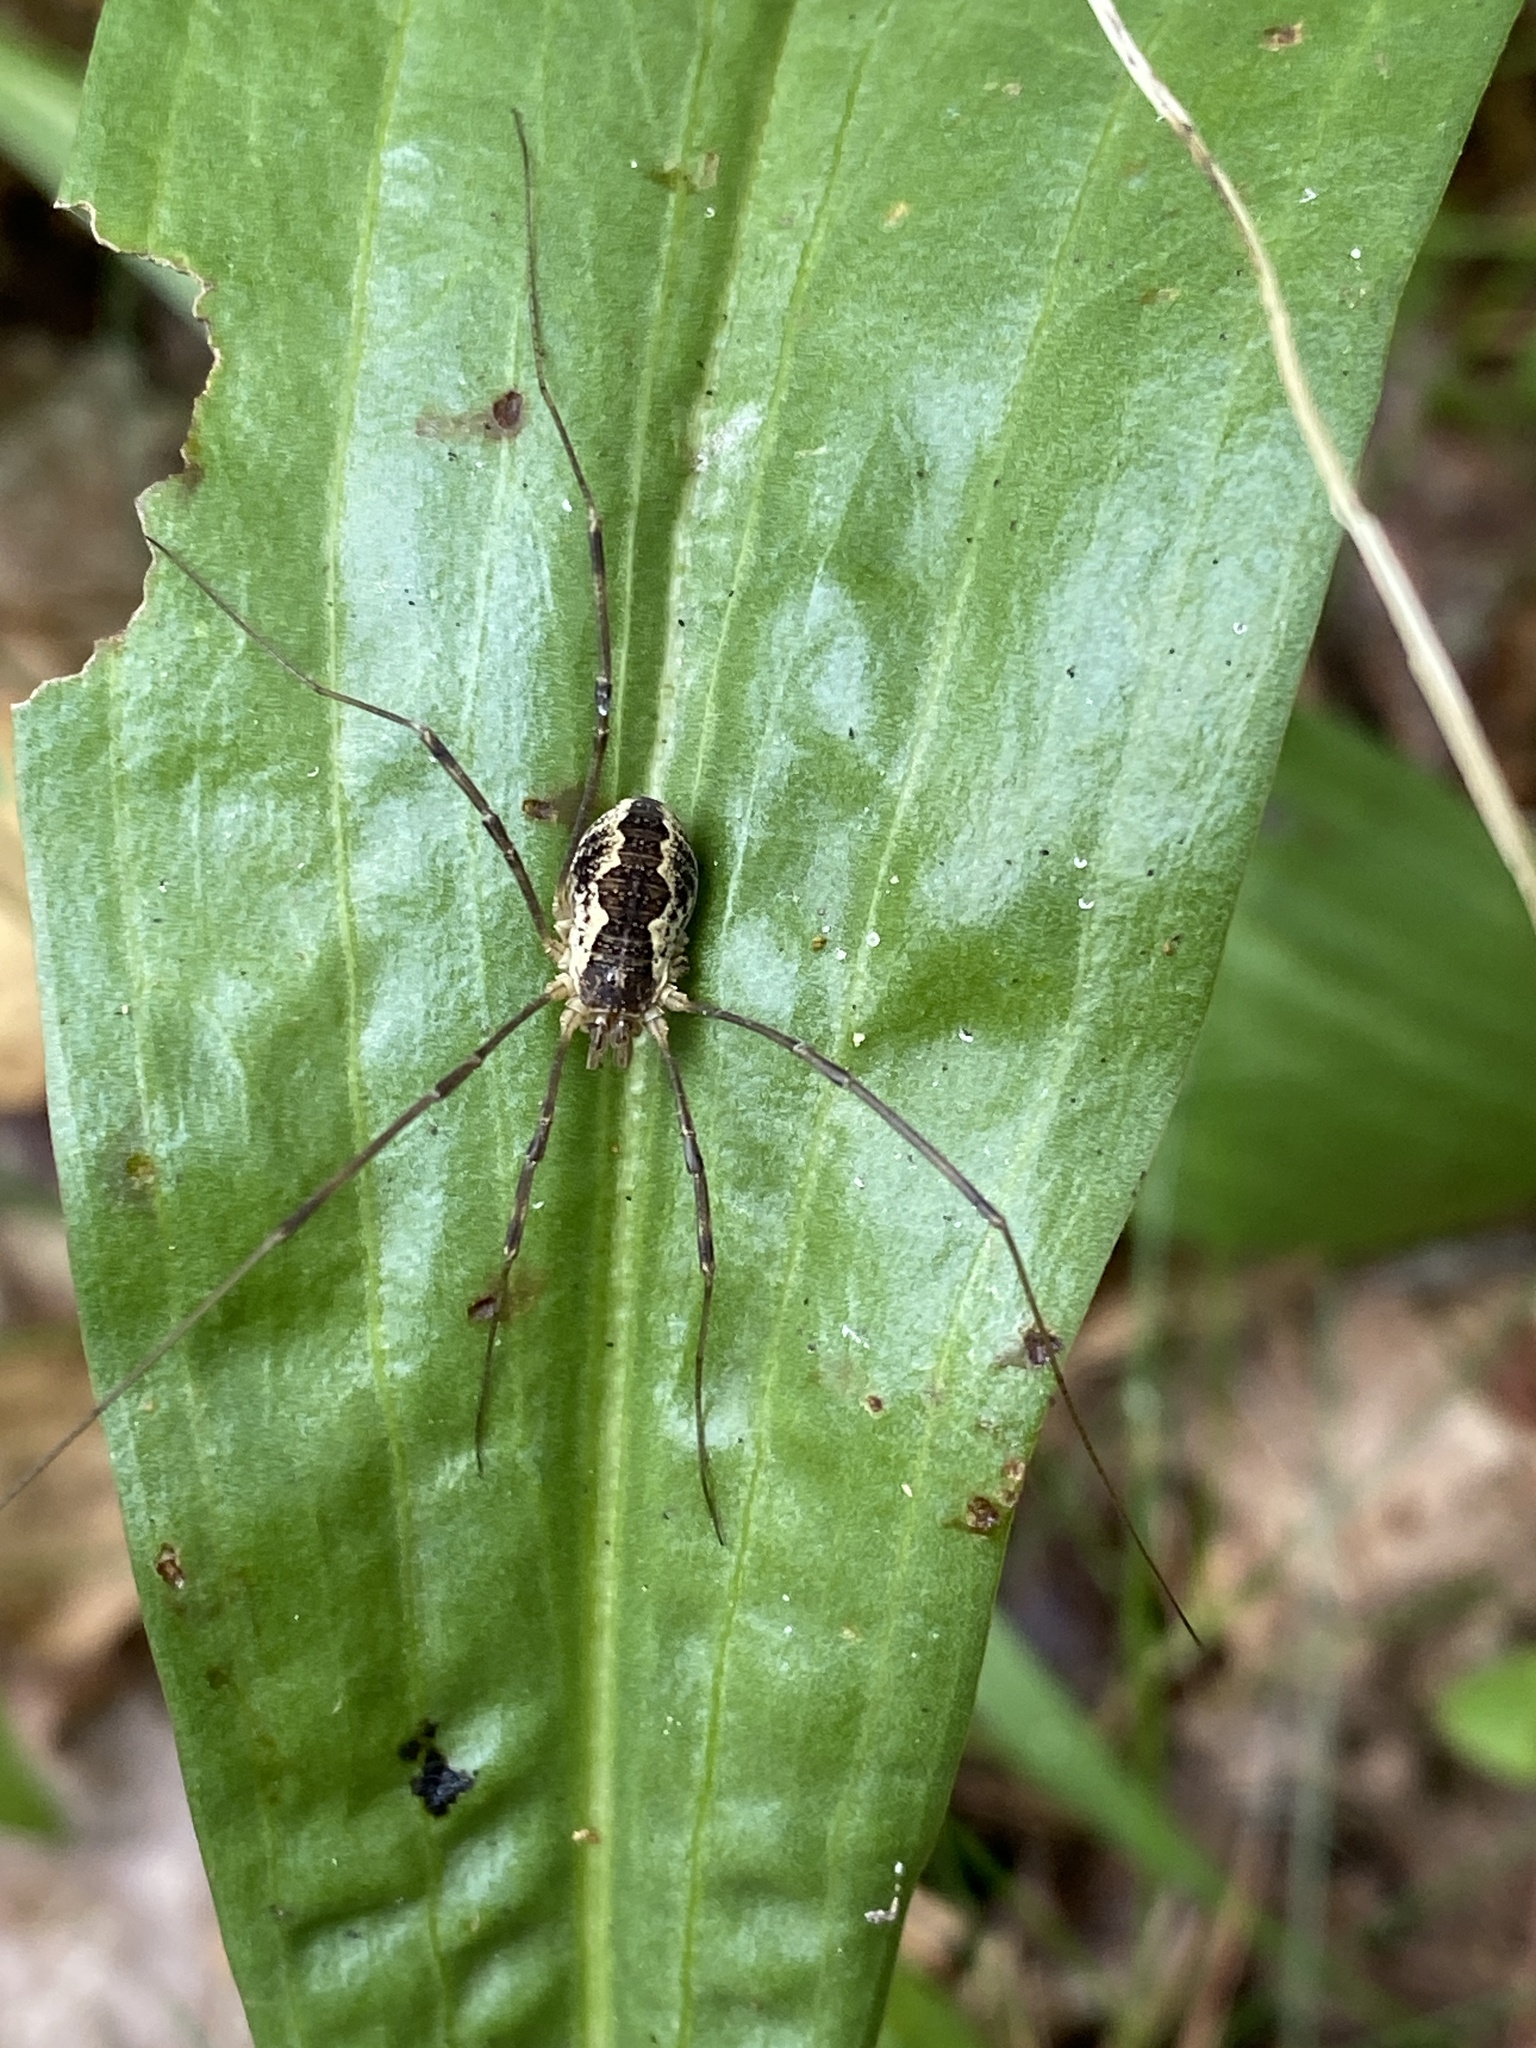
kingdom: Animalia
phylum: Arthropoda
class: Arachnida
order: Opiliones
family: Phalangiidae
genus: Mitopus
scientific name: Mitopus morio
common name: Saddleback harvestman
